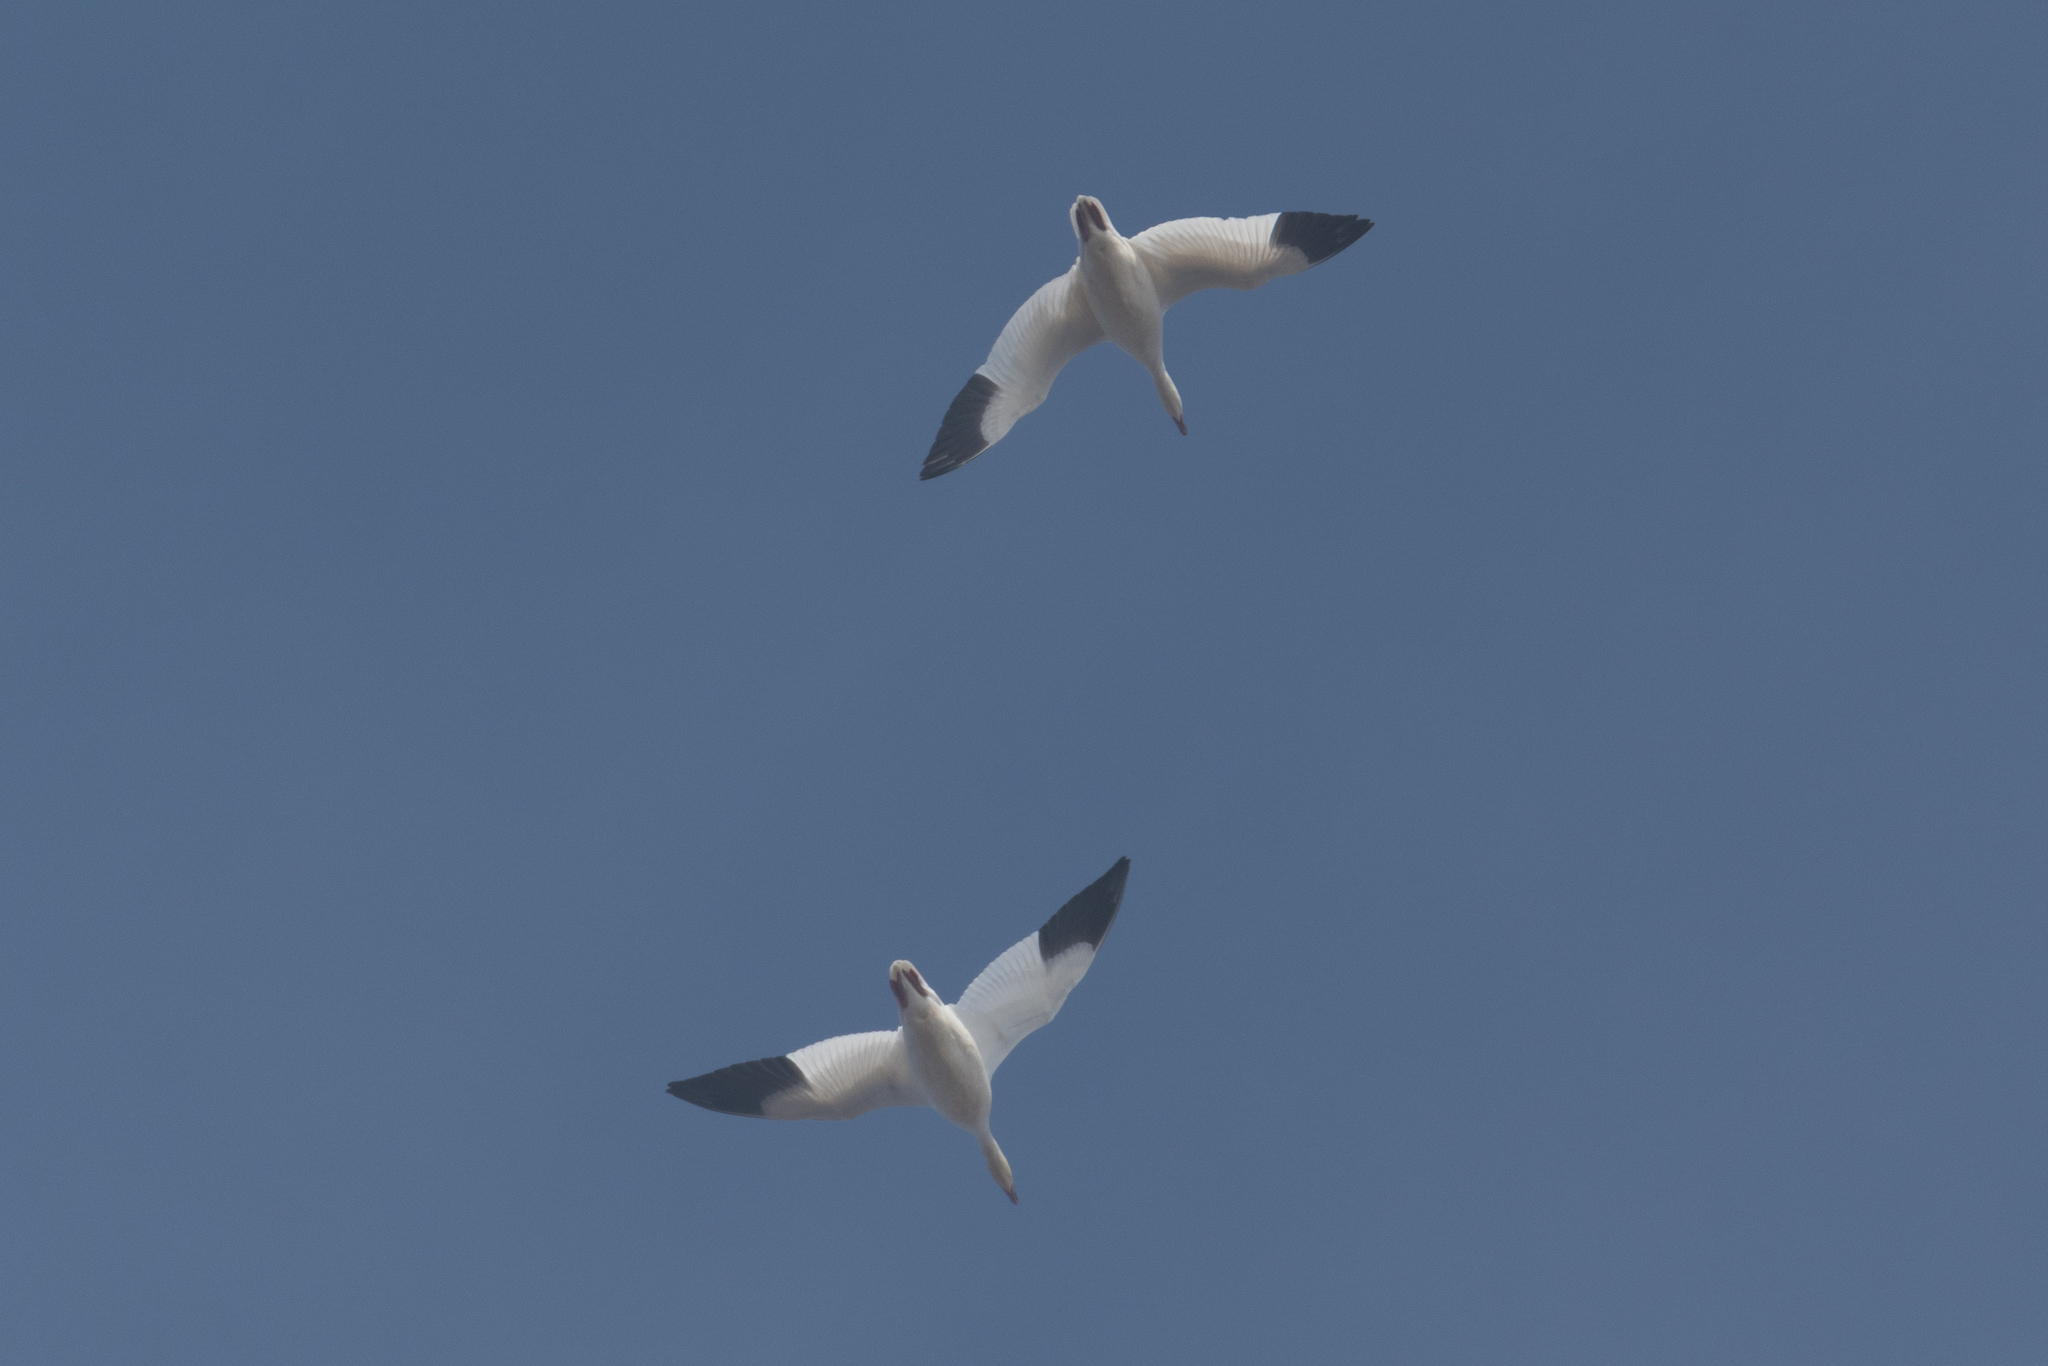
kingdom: Animalia
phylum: Chordata
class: Aves
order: Anseriformes
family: Anatidae
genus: Anser
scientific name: Anser caerulescens
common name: Snow goose
